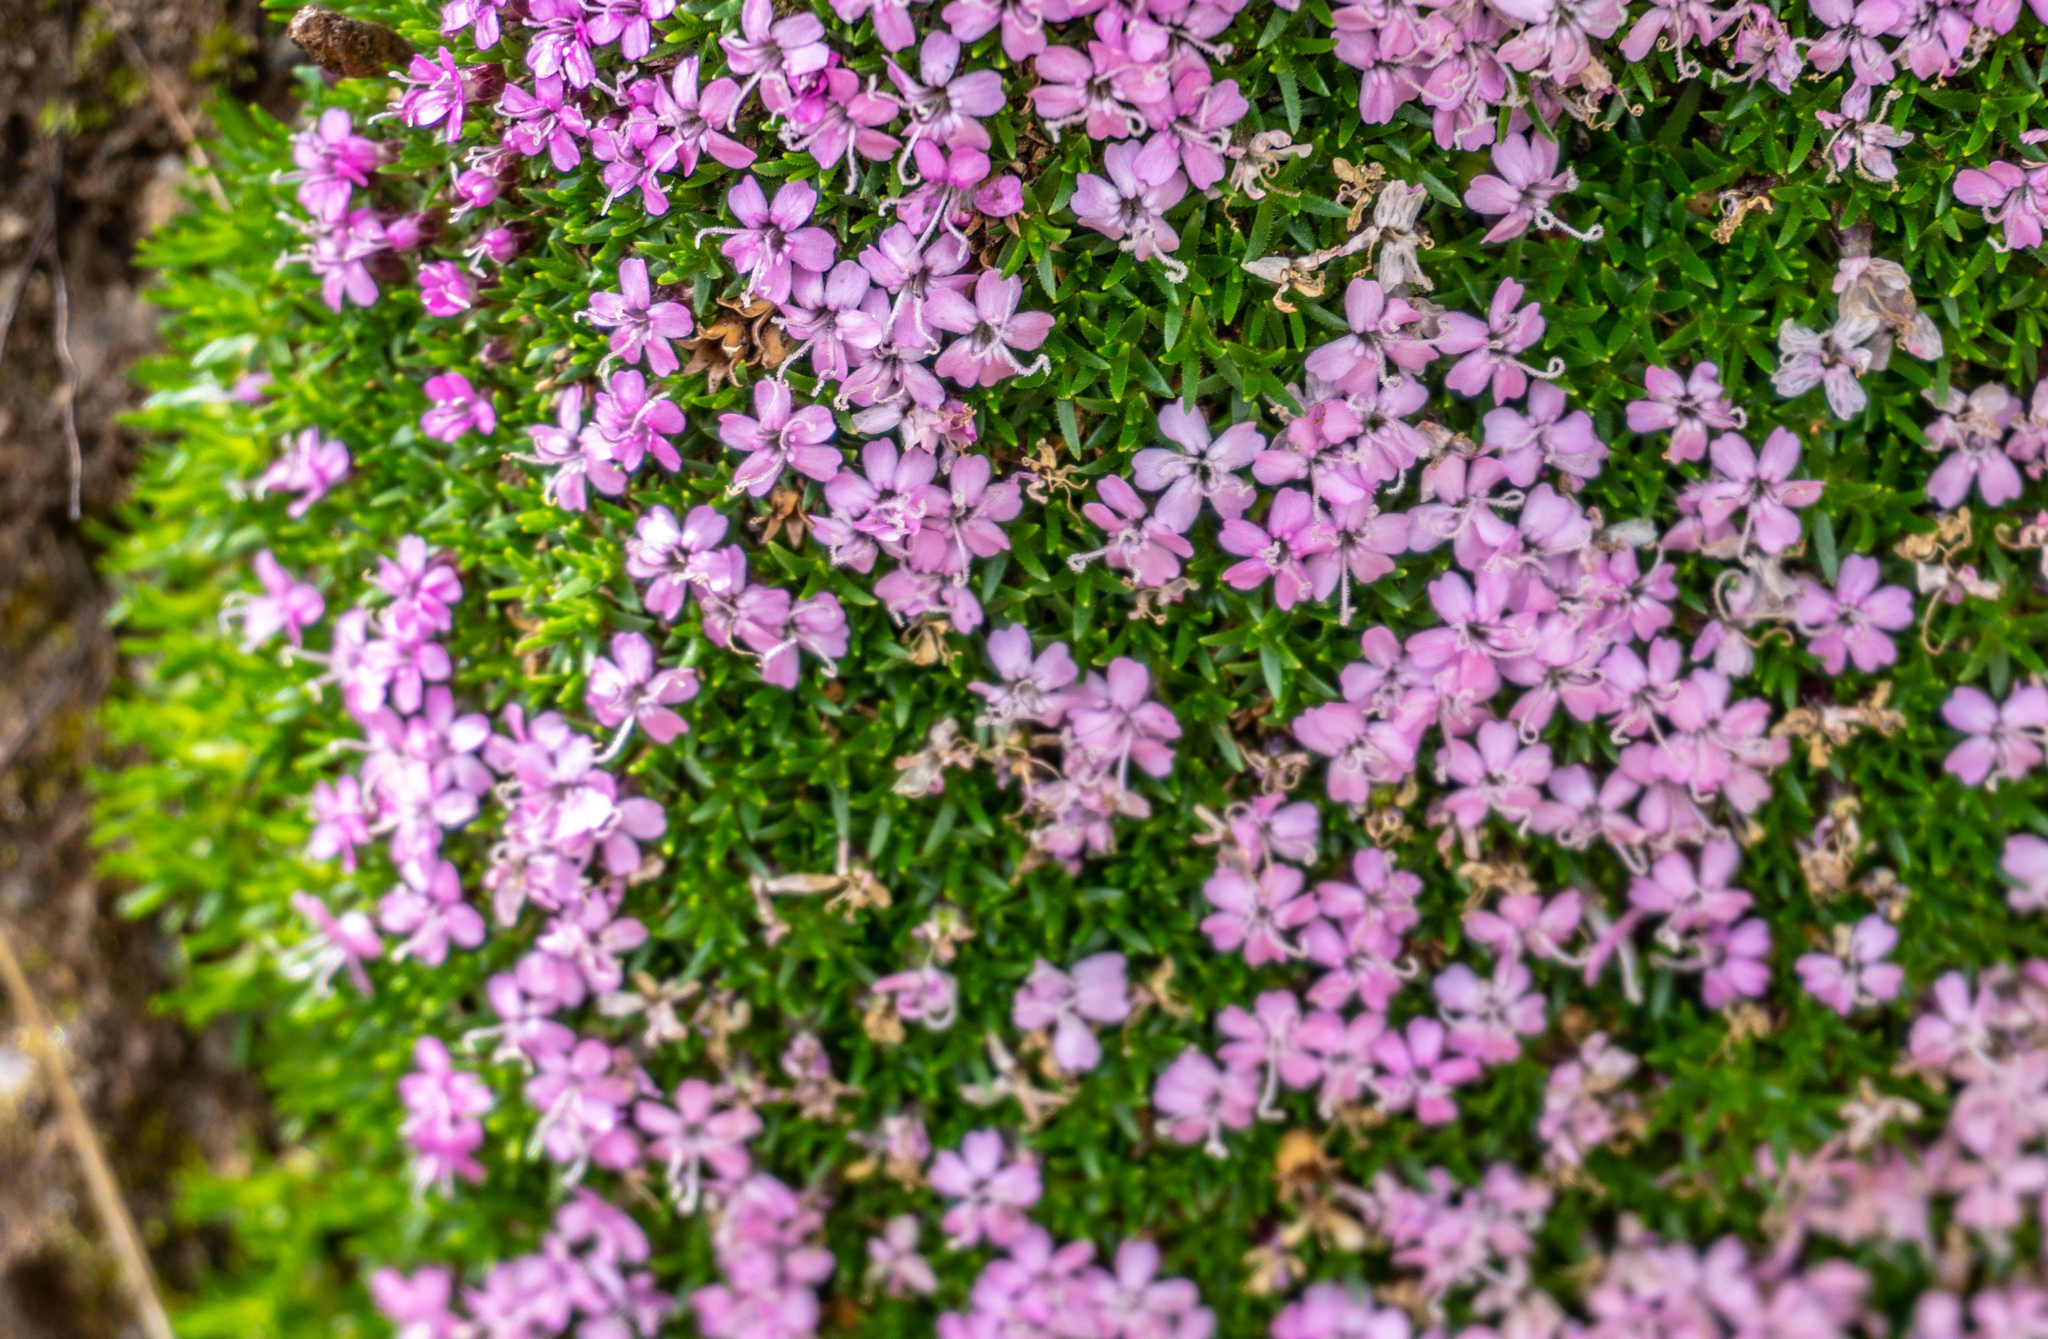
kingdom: Plantae
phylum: Tracheophyta
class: Magnoliopsida
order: Caryophyllales
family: Caryophyllaceae
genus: Silene
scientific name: Silene acaulis
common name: Moss campion
